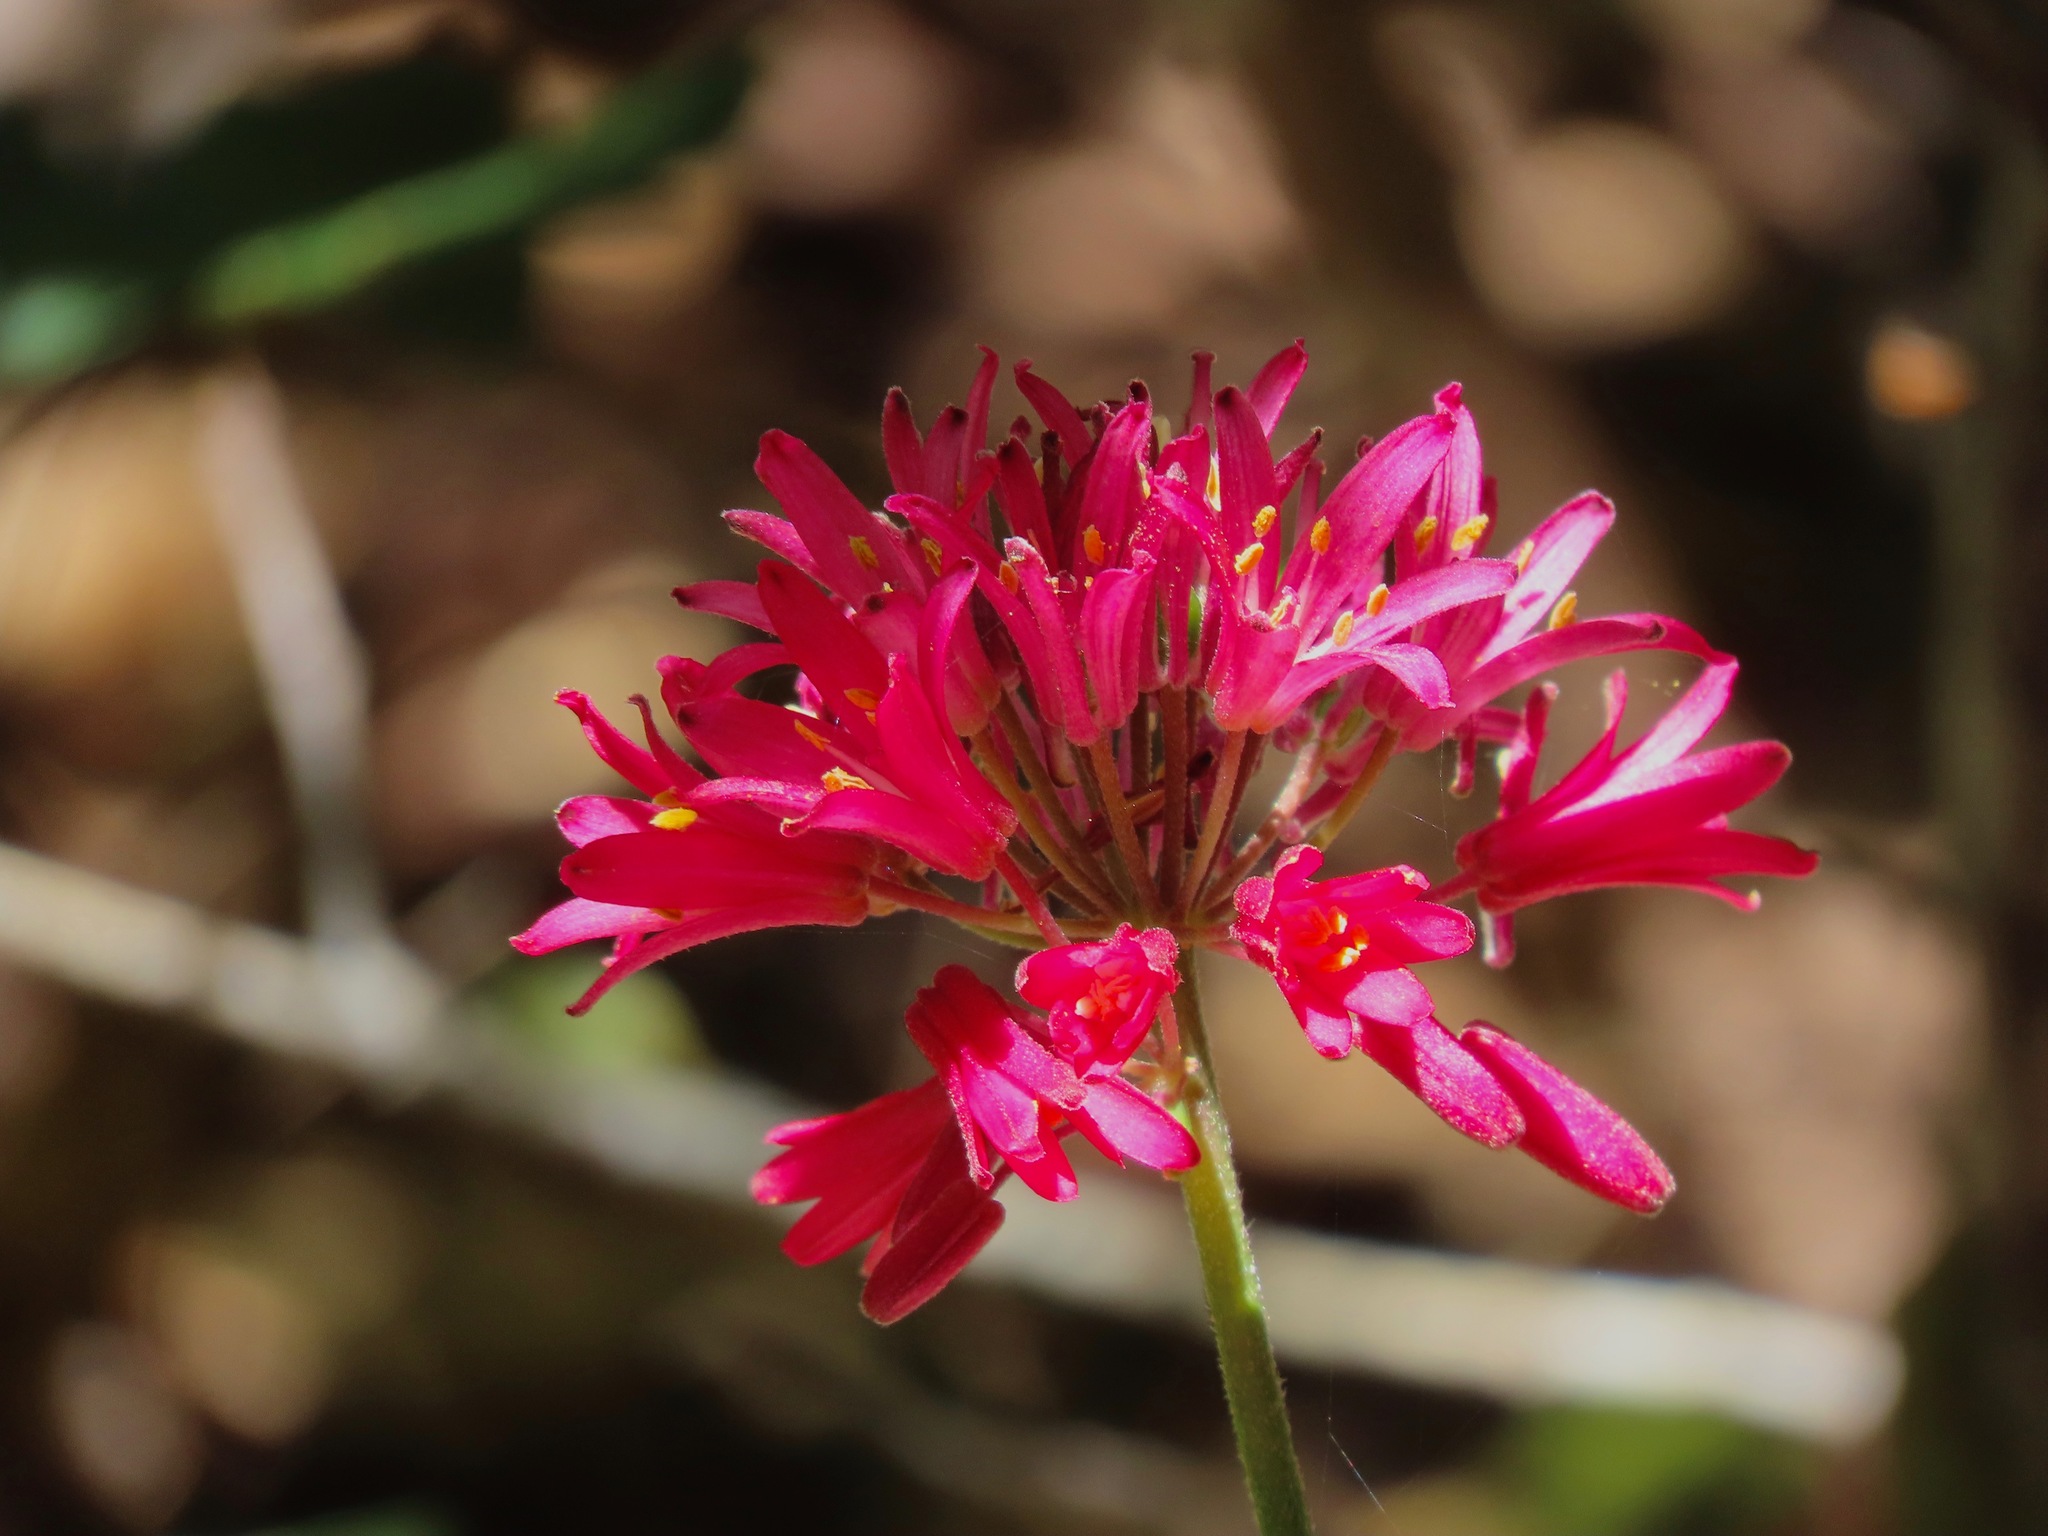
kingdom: Plantae
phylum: Tracheophyta
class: Liliopsida
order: Liliales
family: Liliaceae
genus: Clintonia
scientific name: Clintonia andrewsiana
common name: Red clintonia
